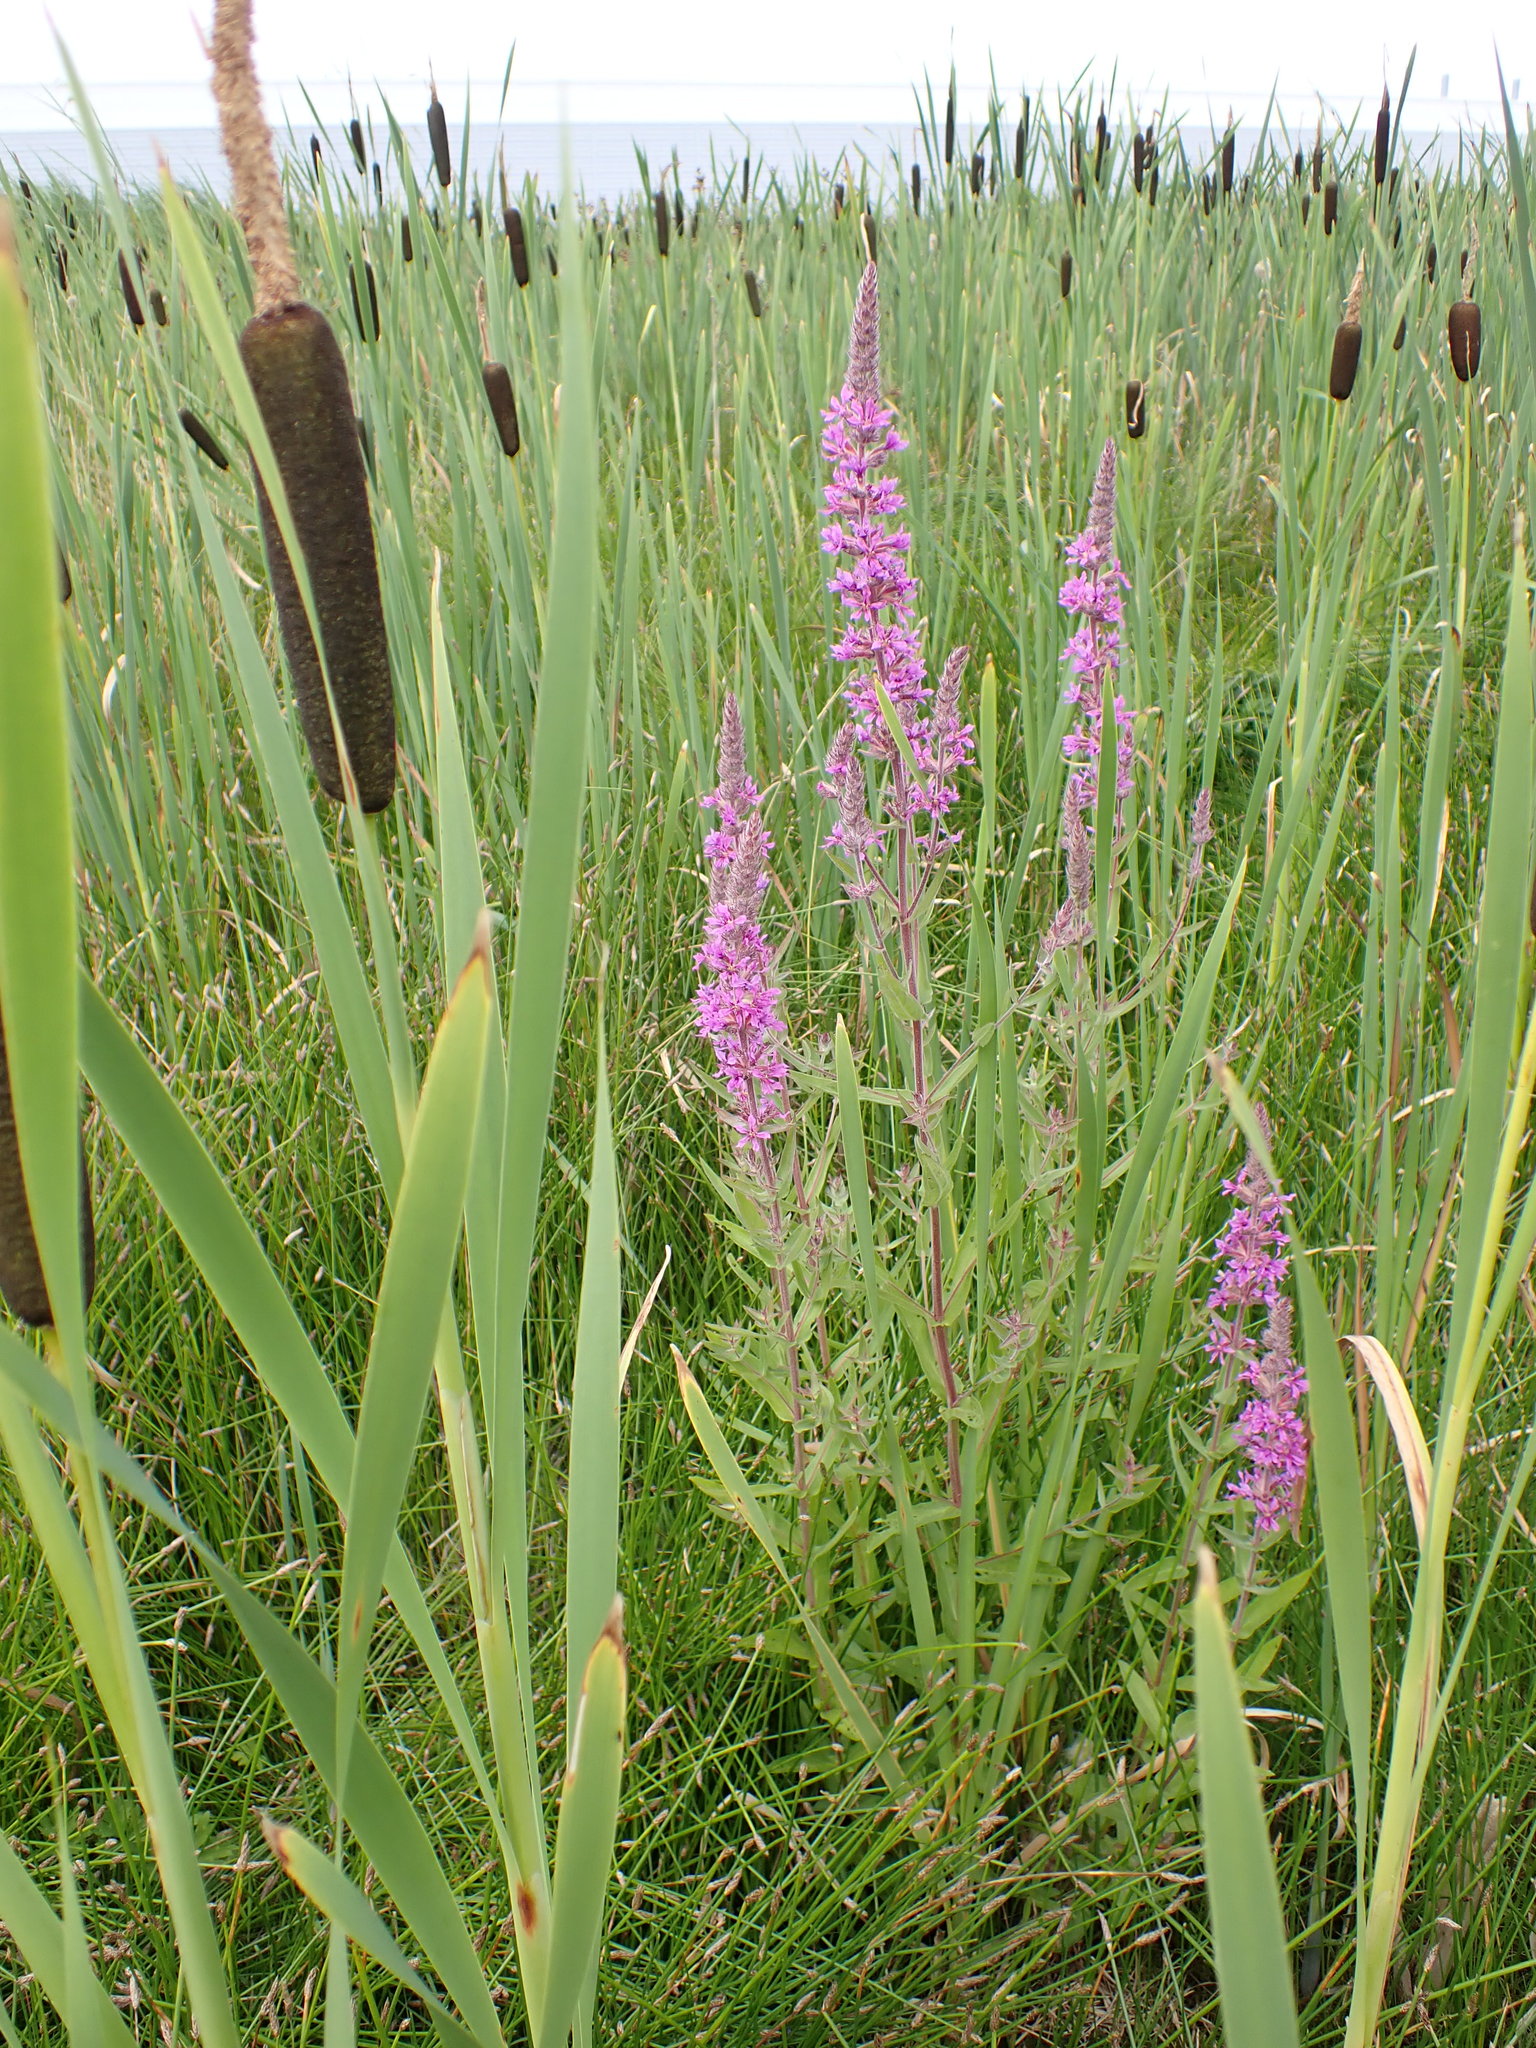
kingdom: Plantae
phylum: Tracheophyta
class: Liliopsida
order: Poales
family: Typhaceae
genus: Typha
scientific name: Typha latifolia
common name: Broadleaf cattail
